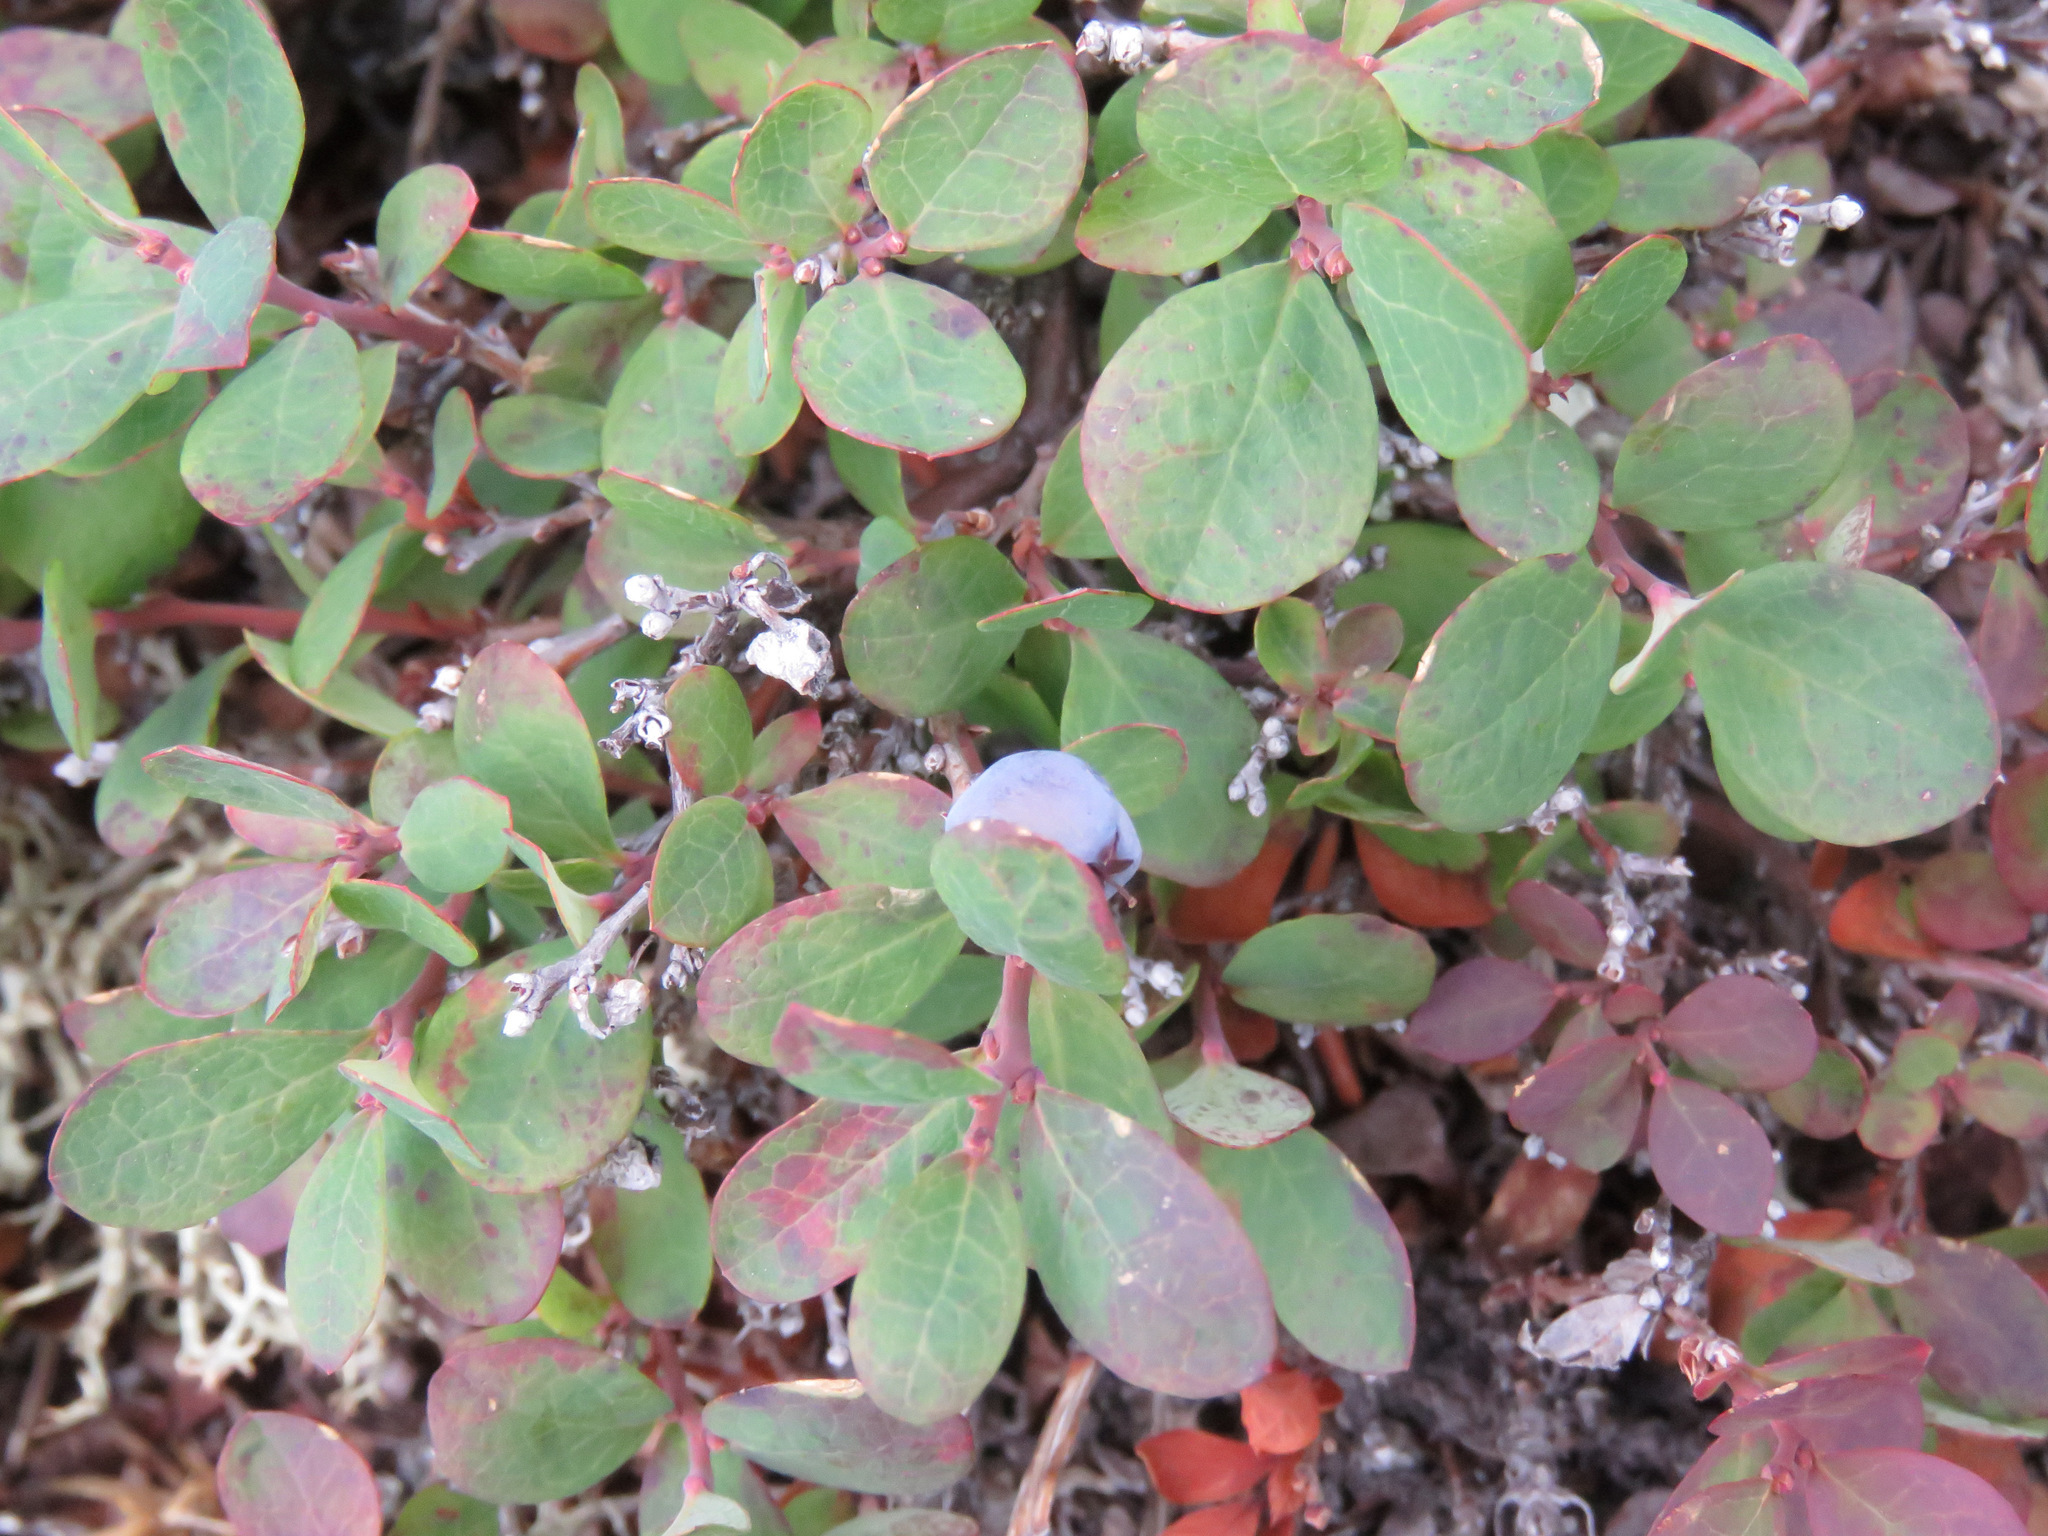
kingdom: Plantae
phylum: Tracheophyta
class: Magnoliopsida
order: Ericales
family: Ericaceae
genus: Vaccinium
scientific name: Vaccinium uliginosum
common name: Bog bilberry
